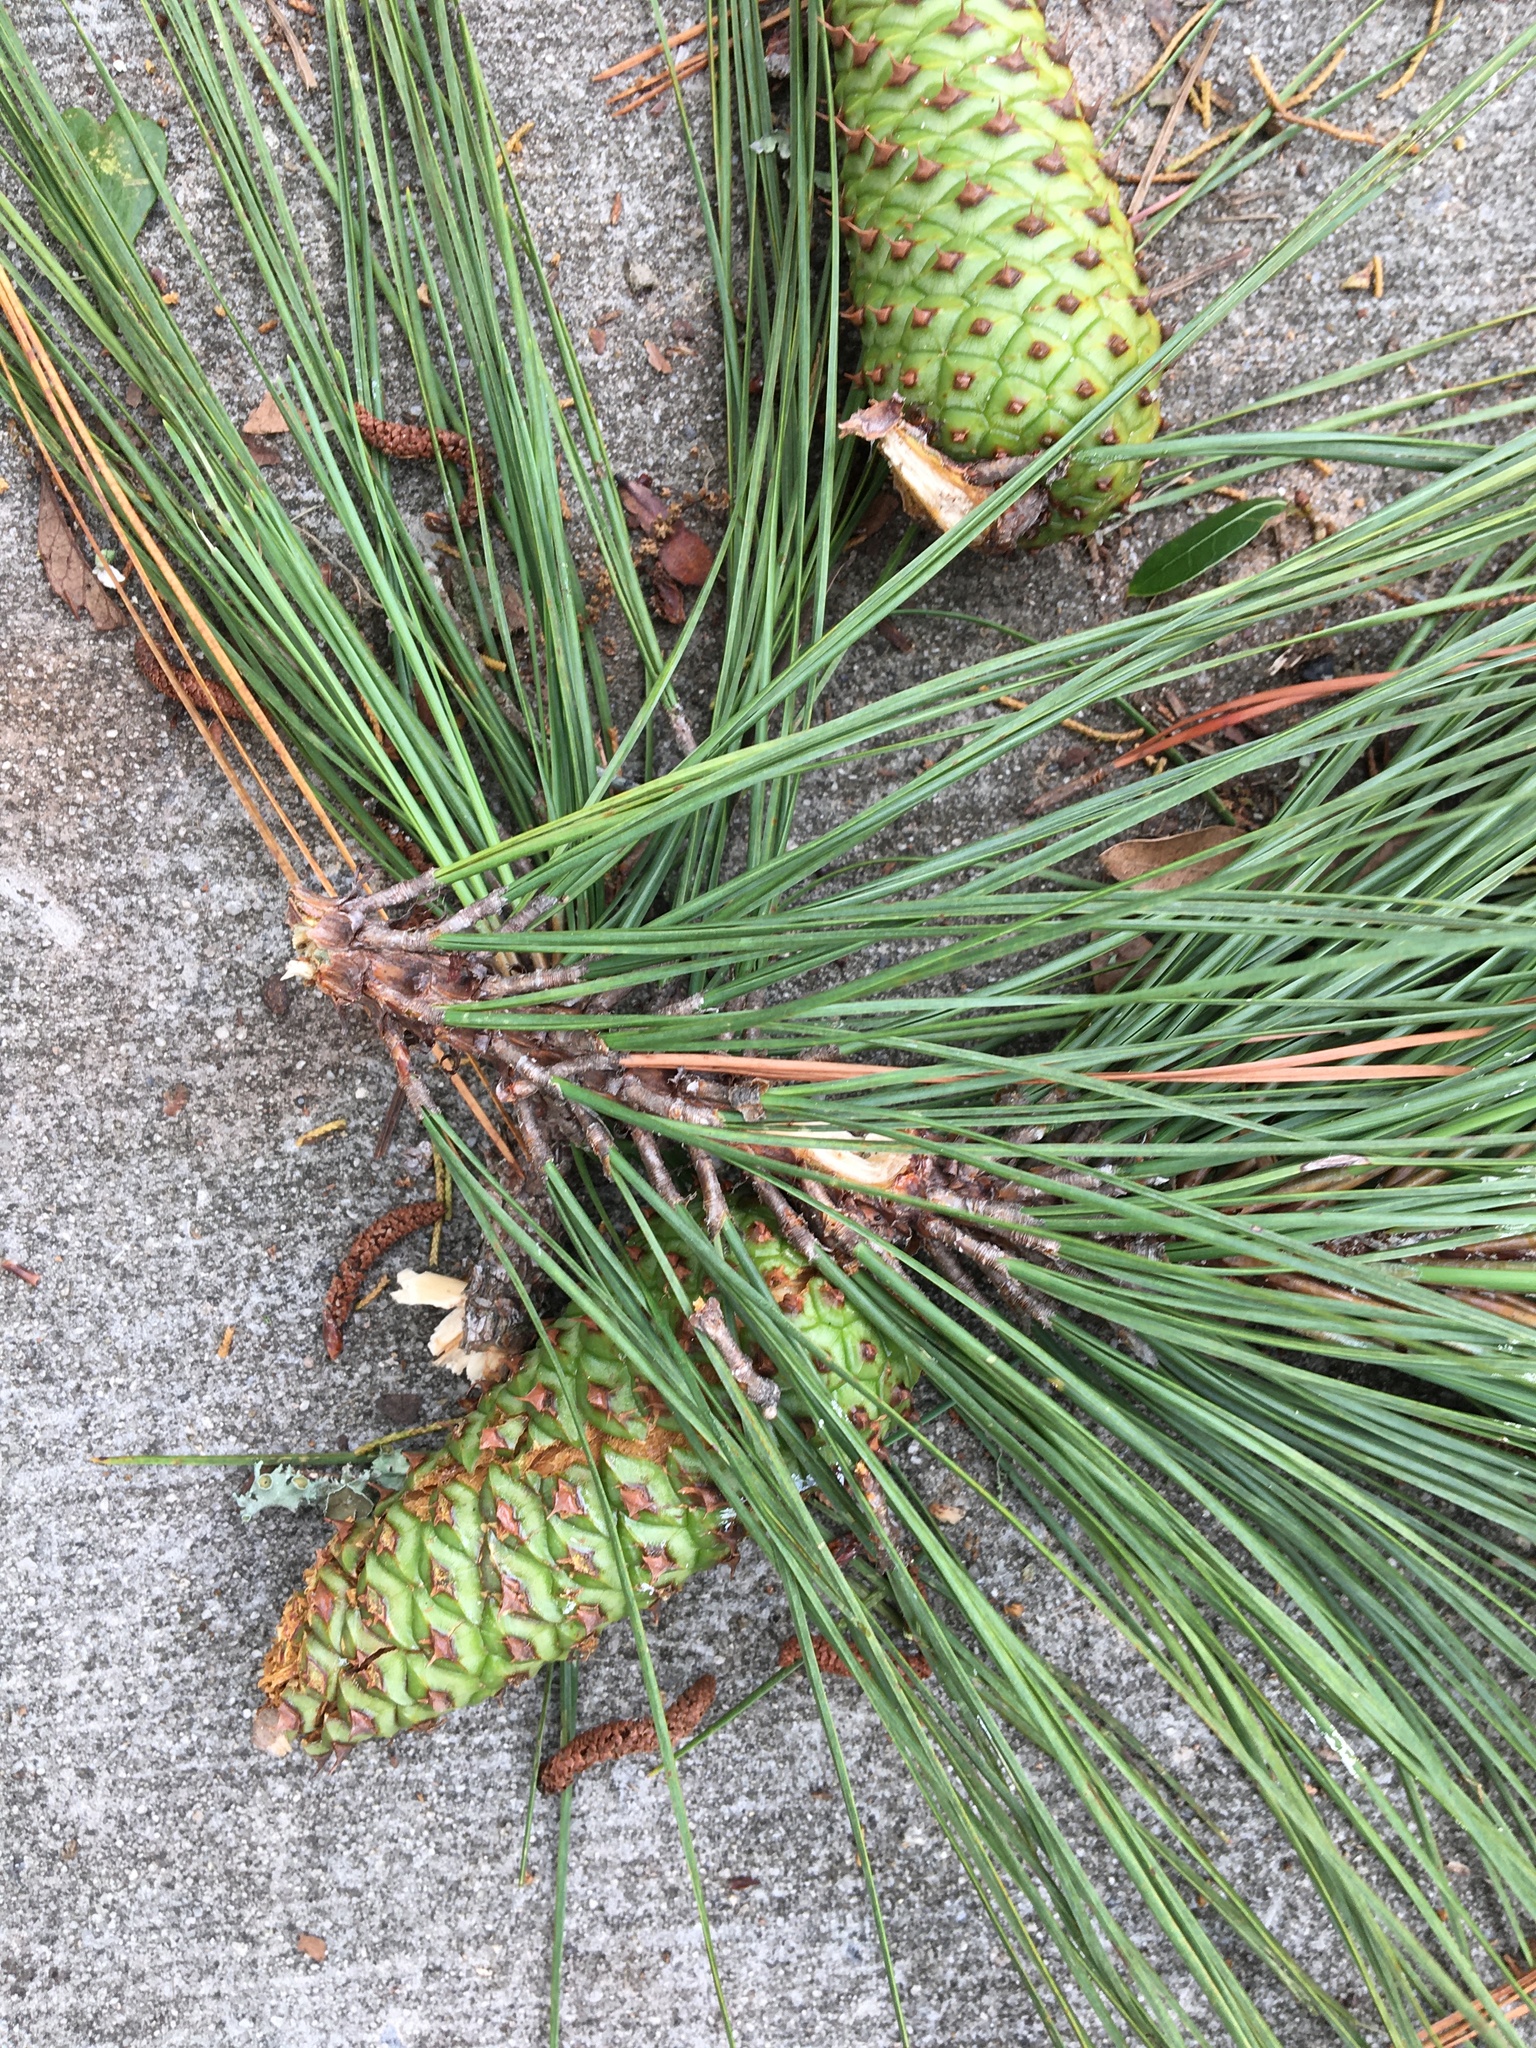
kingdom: Plantae
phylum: Tracheophyta
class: Pinopsida
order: Pinales
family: Pinaceae
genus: Pinus
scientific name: Pinus taeda
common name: Loblolly pine
